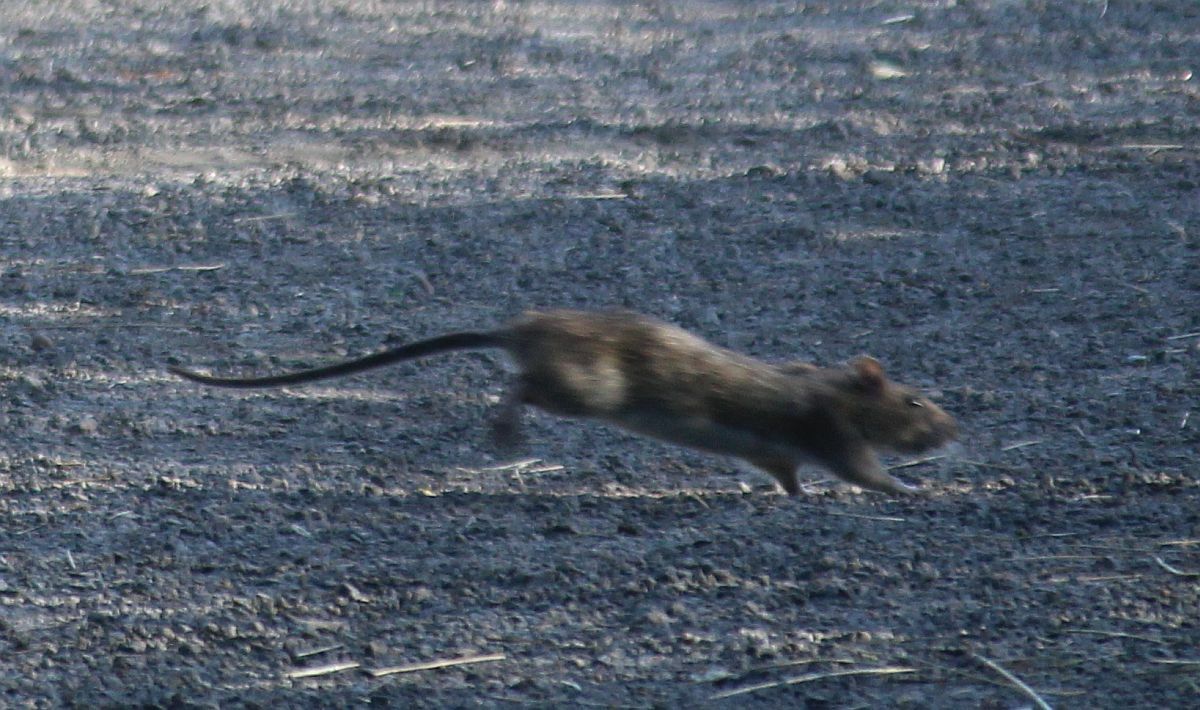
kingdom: Animalia
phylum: Chordata
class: Mammalia
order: Rodentia
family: Muridae
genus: Rattus
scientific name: Rattus norvegicus
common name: Brown rat
